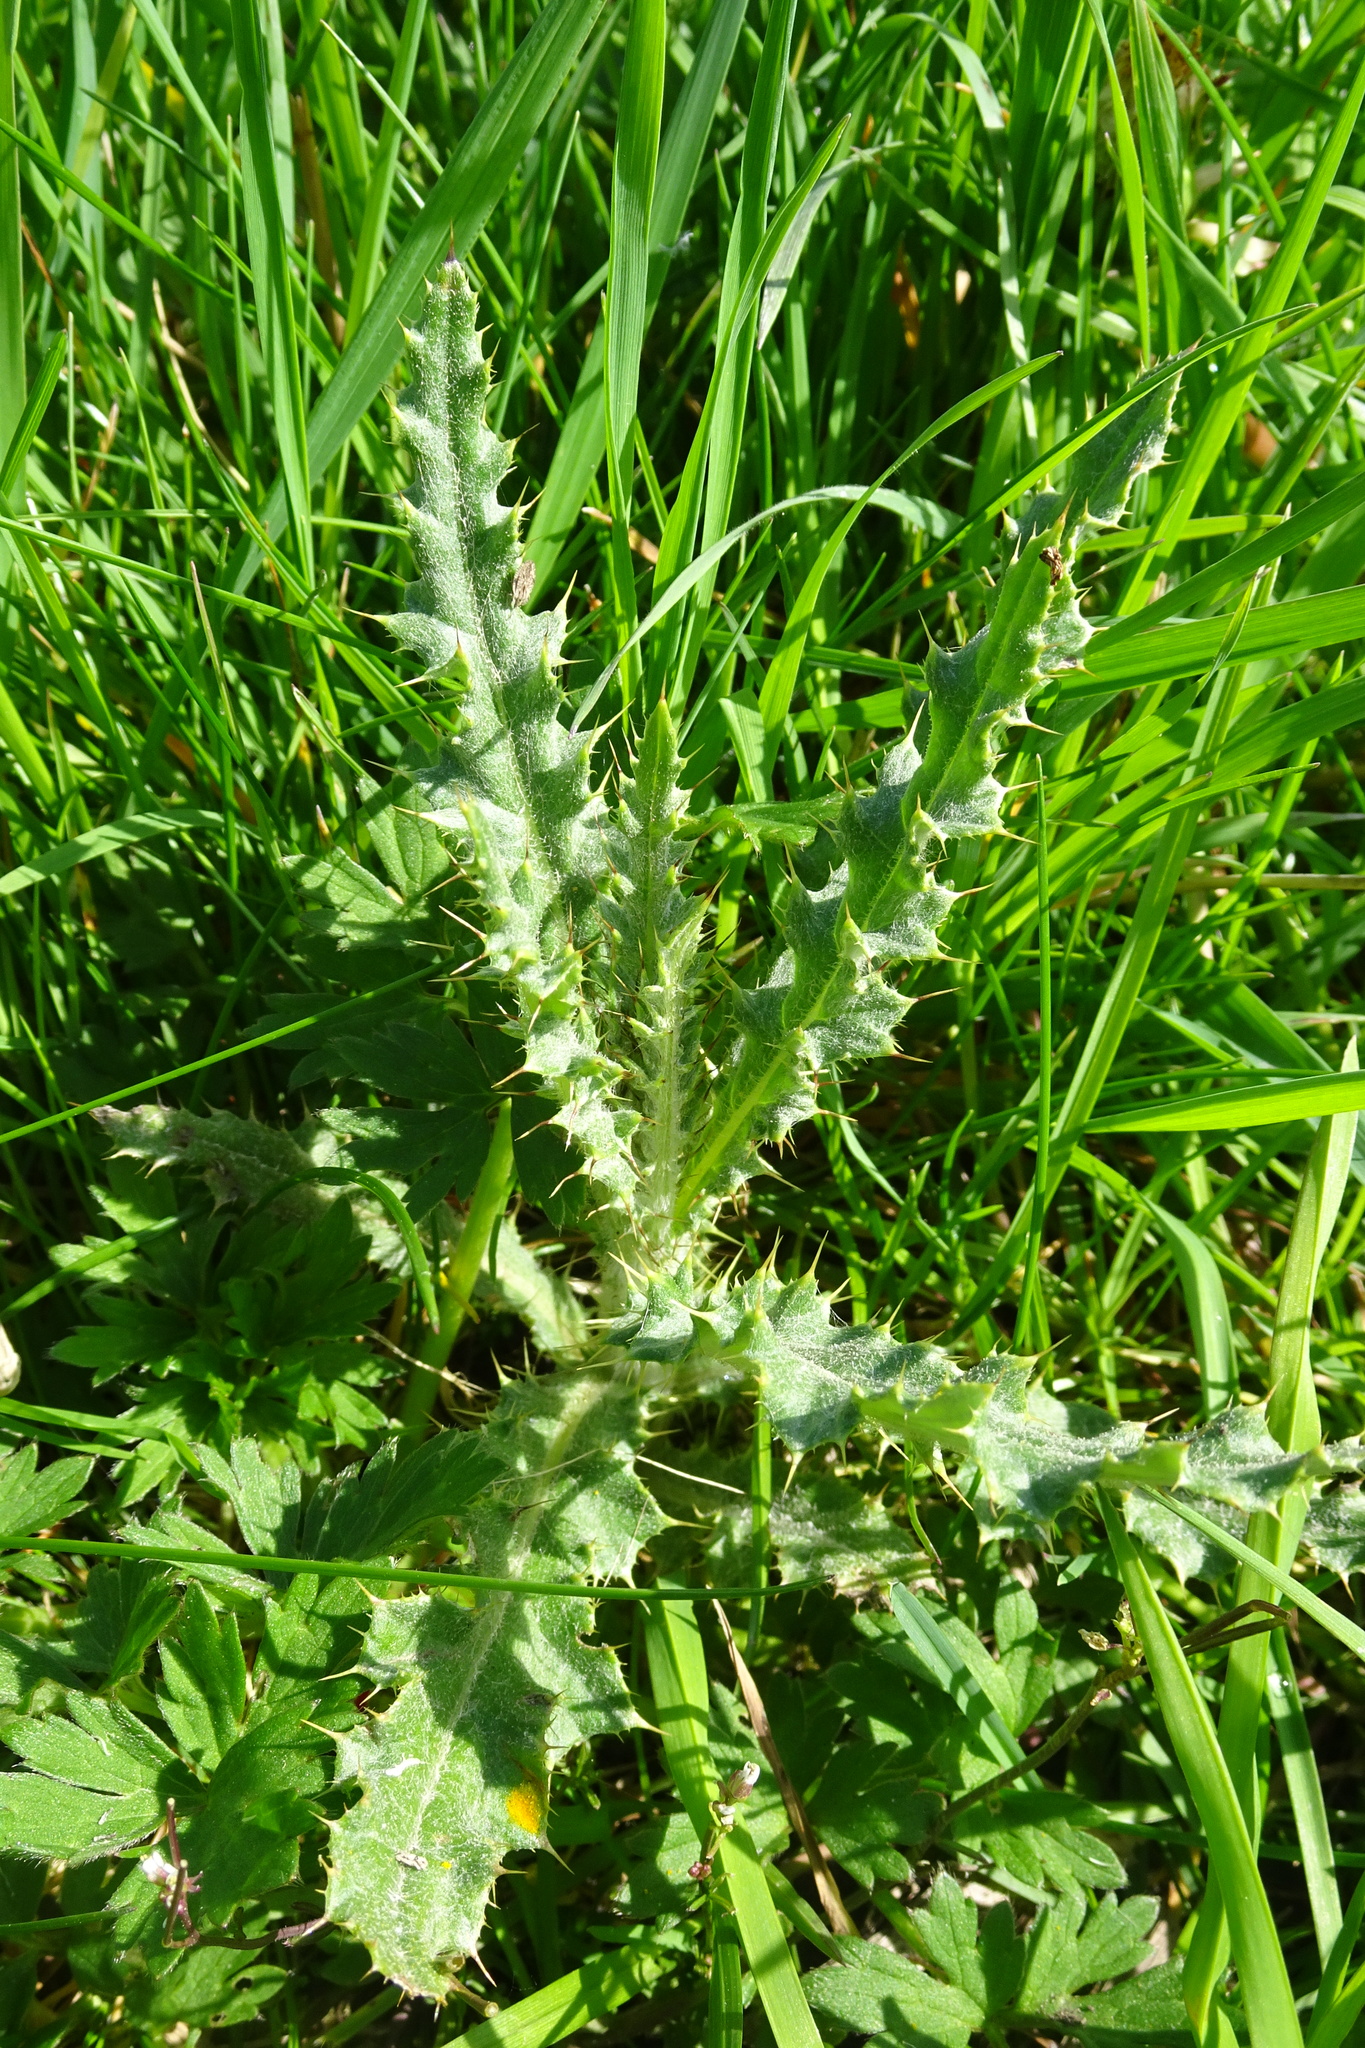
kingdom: Plantae
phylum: Tracheophyta
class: Magnoliopsida
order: Asterales
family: Asteraceae
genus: Cirsium
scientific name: Cirsium arvense
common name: Creeping thistle
